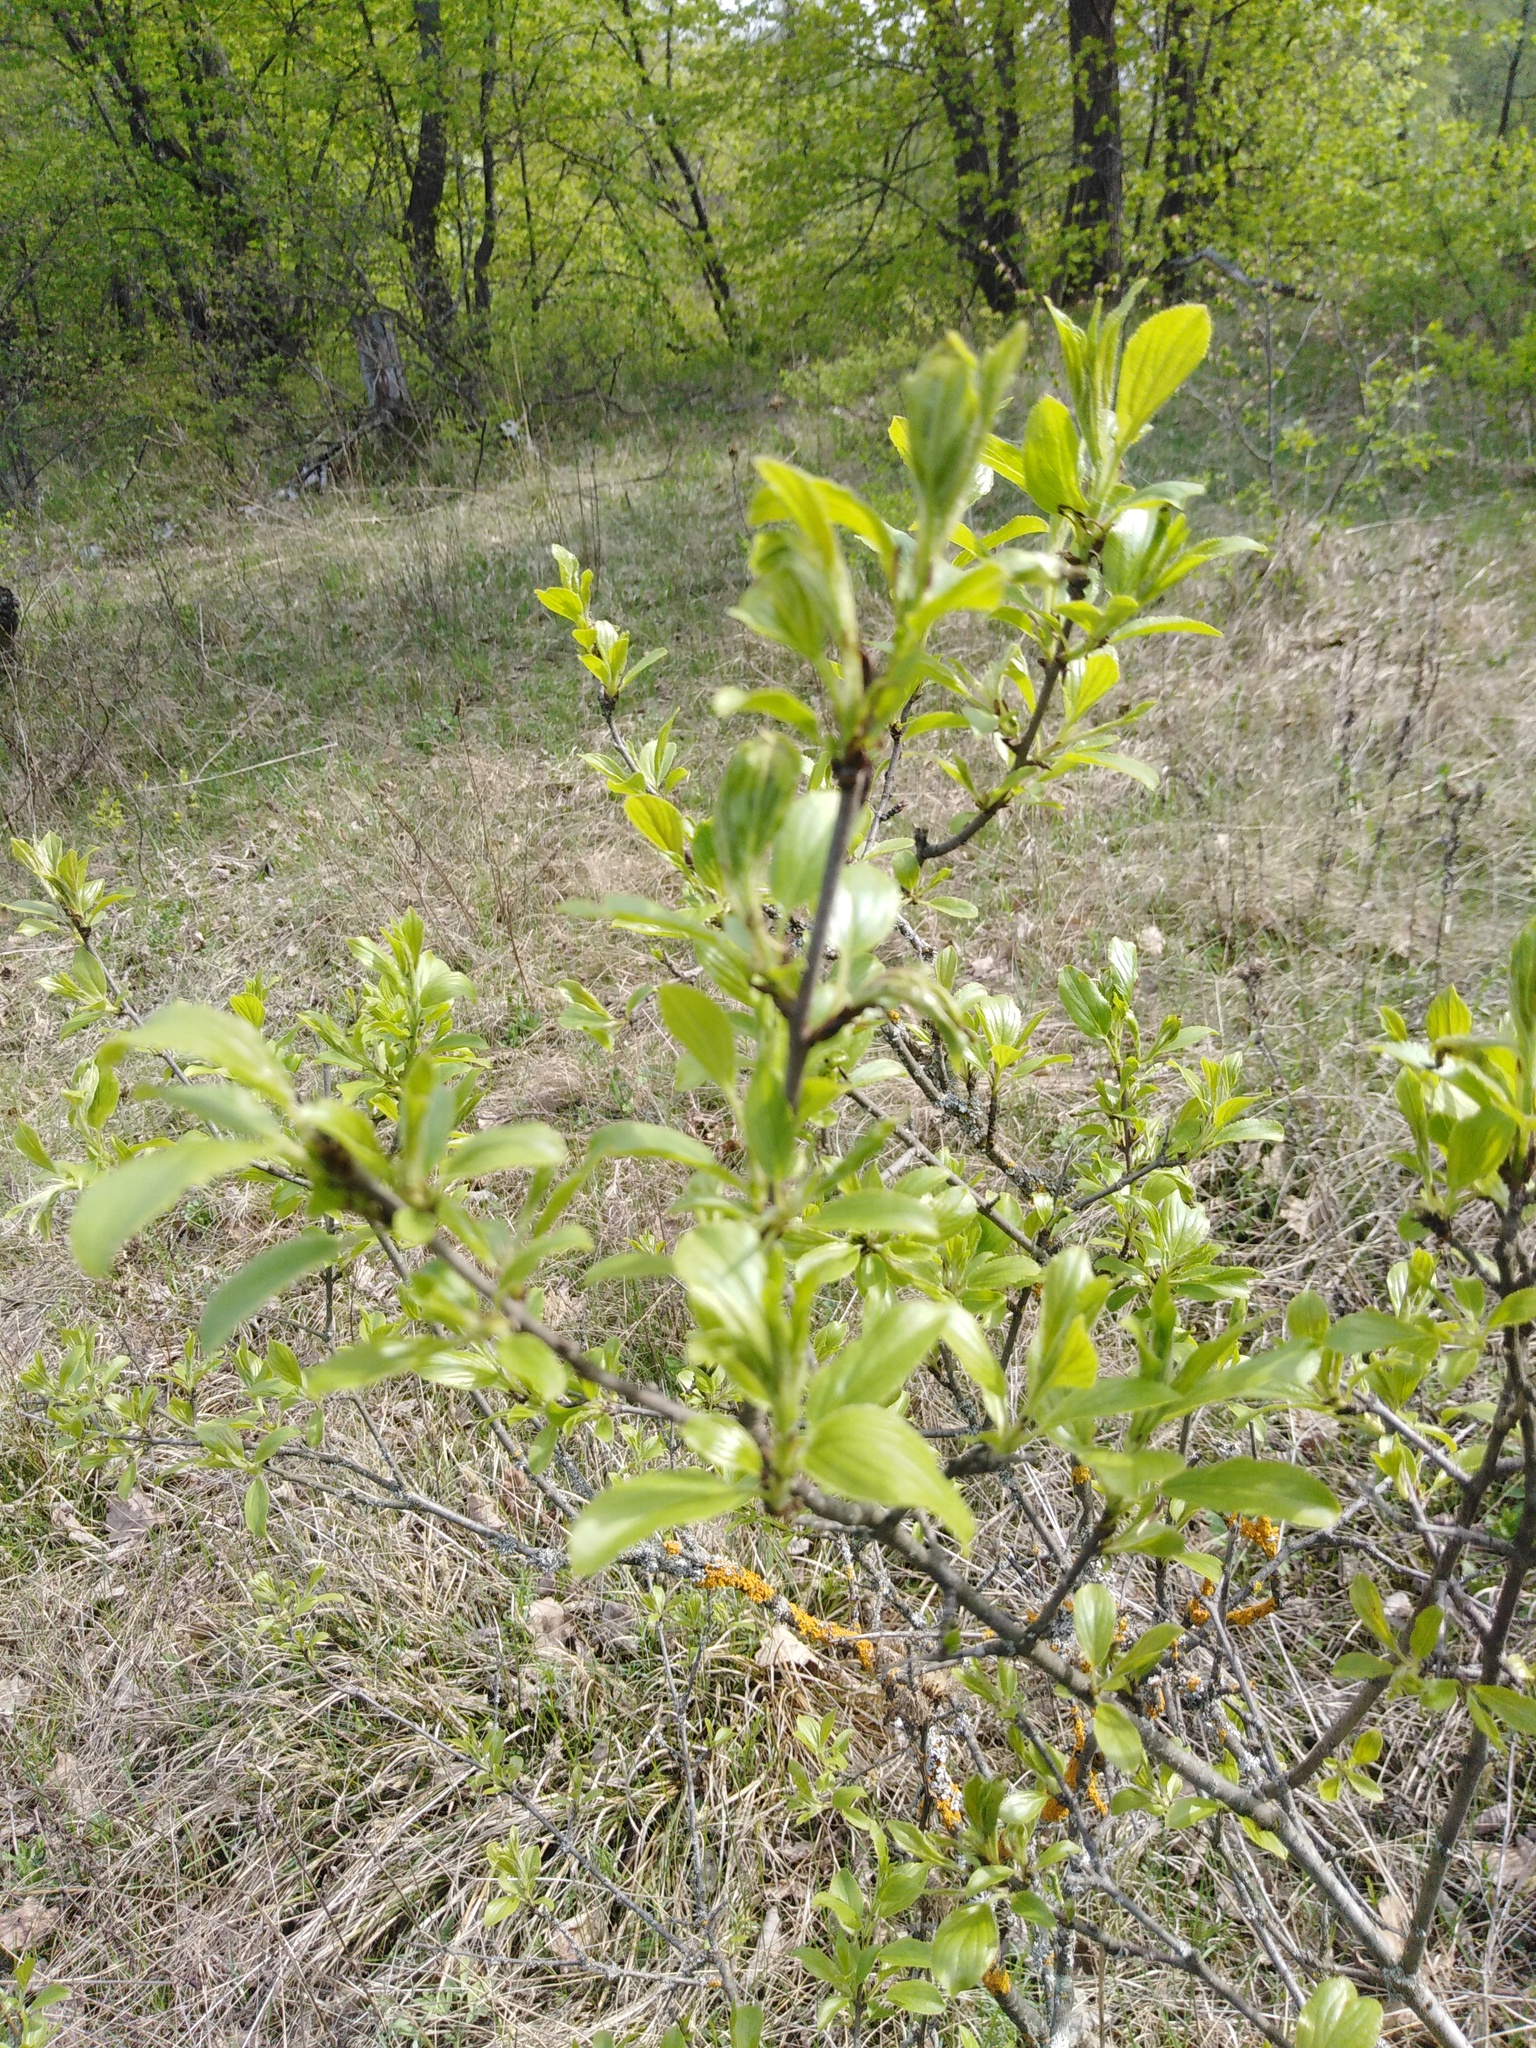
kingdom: Plantae
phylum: Tracheophyta
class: Magnoliopsida
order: Rosales
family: Rhamnaceae
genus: Rhamnus
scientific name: Rhamnus cathartica
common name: Common buckthorn
